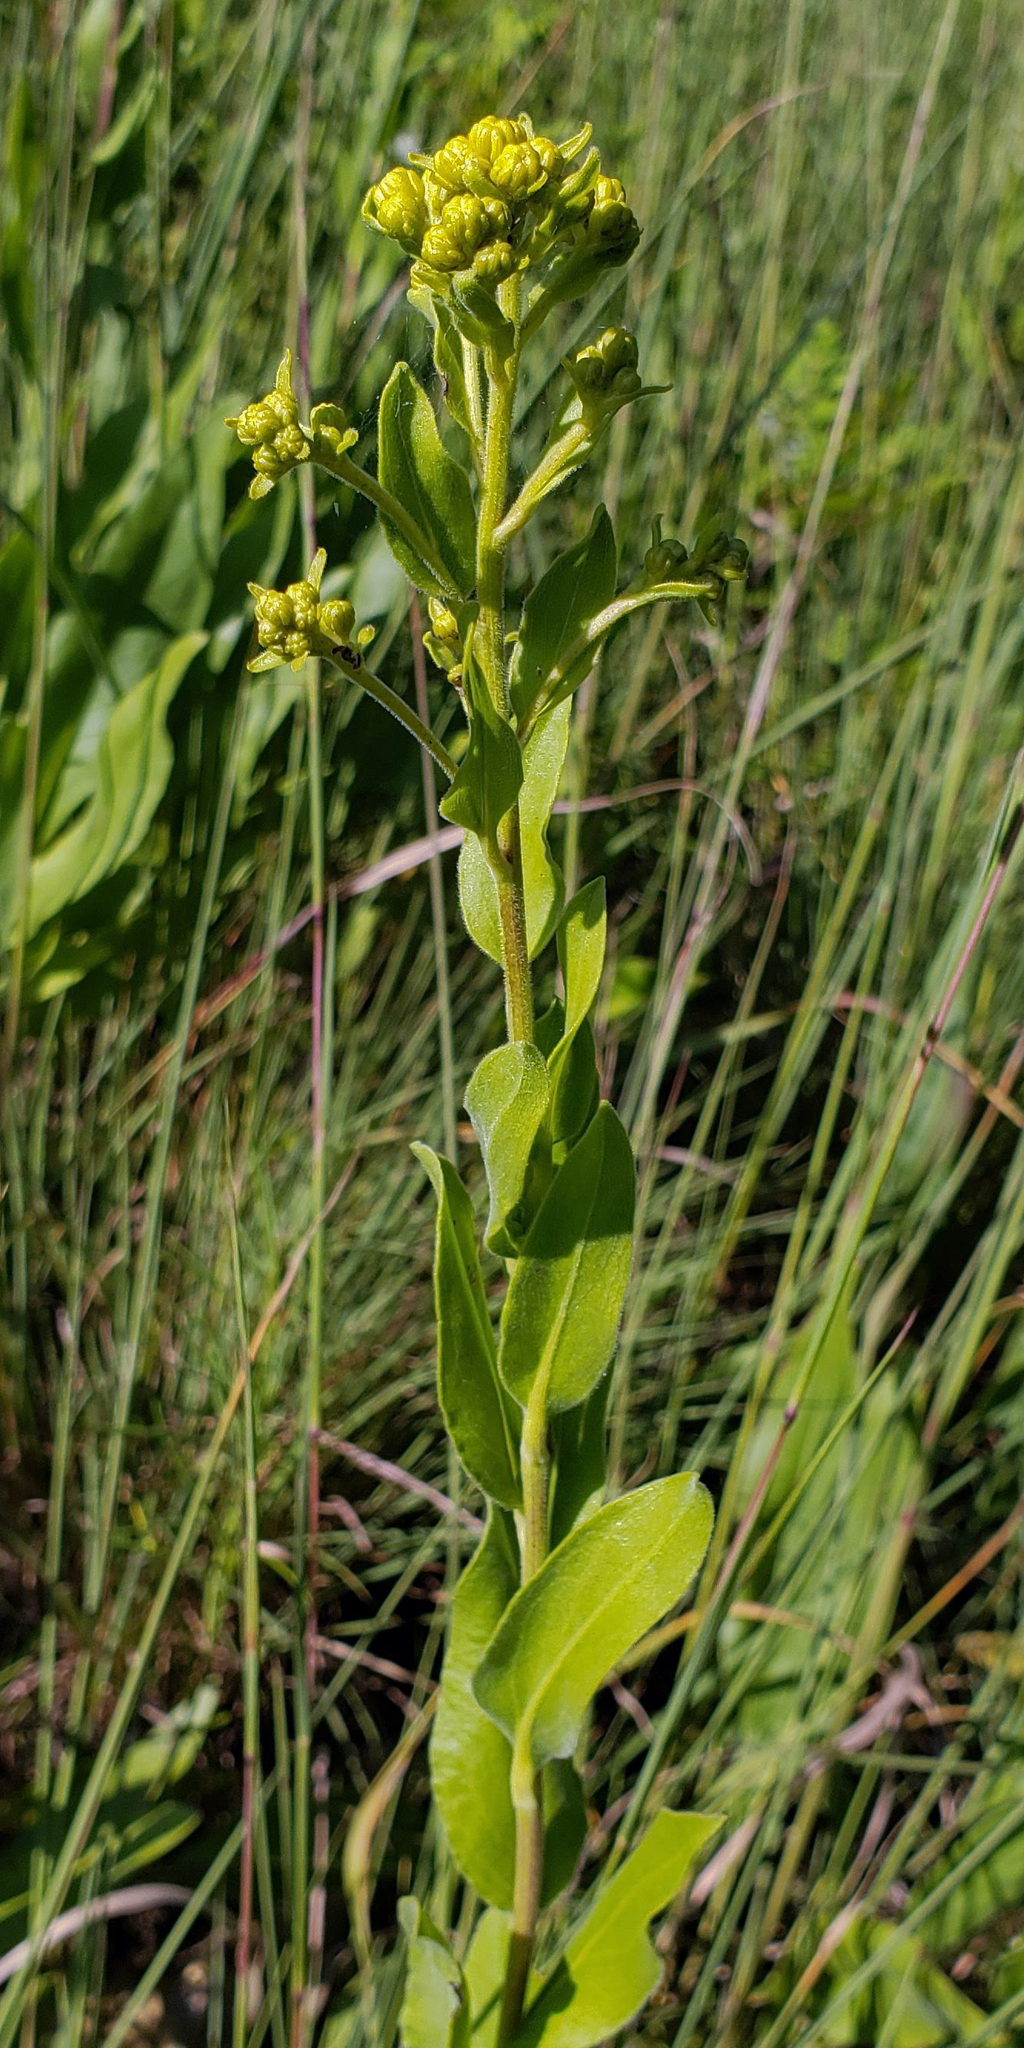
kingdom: Plantae
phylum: Tracheophyta
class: Magnoliopsida
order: Asterales
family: Asteraceae
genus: Solidago
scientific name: Solidago rigida
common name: Rigid goldenrod
